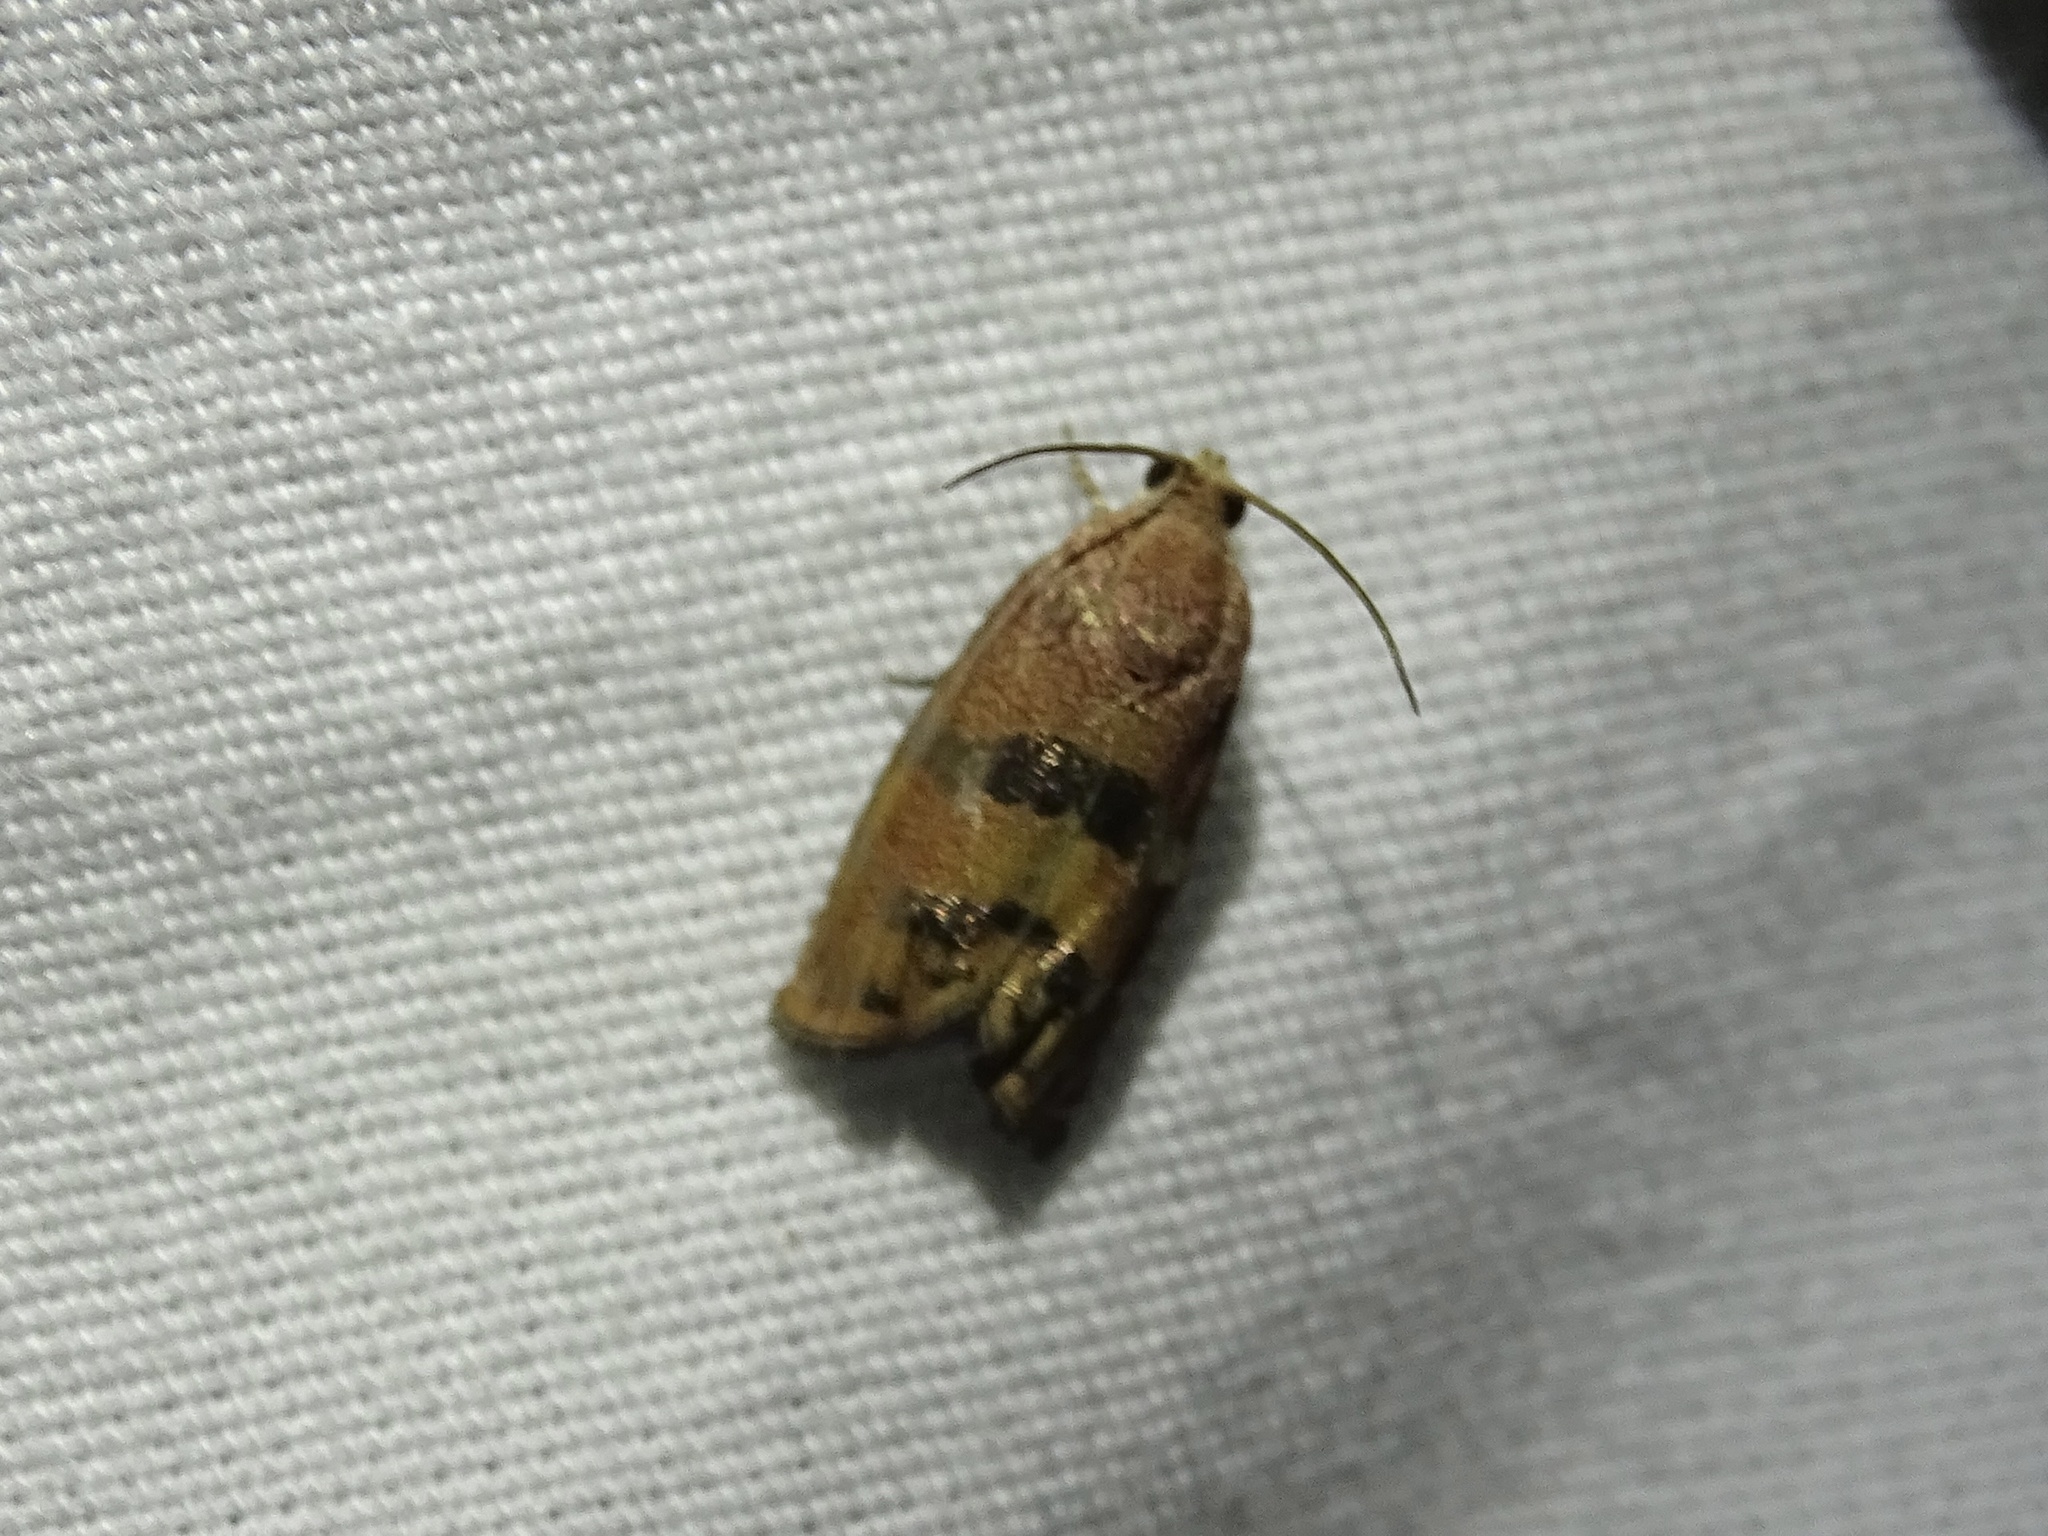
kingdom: Animalia
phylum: Arthropoda
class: Insecta
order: Lepidoptera
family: Tortricidae
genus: Cydia
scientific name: Cydia latiferreana
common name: Filbertworm moth
